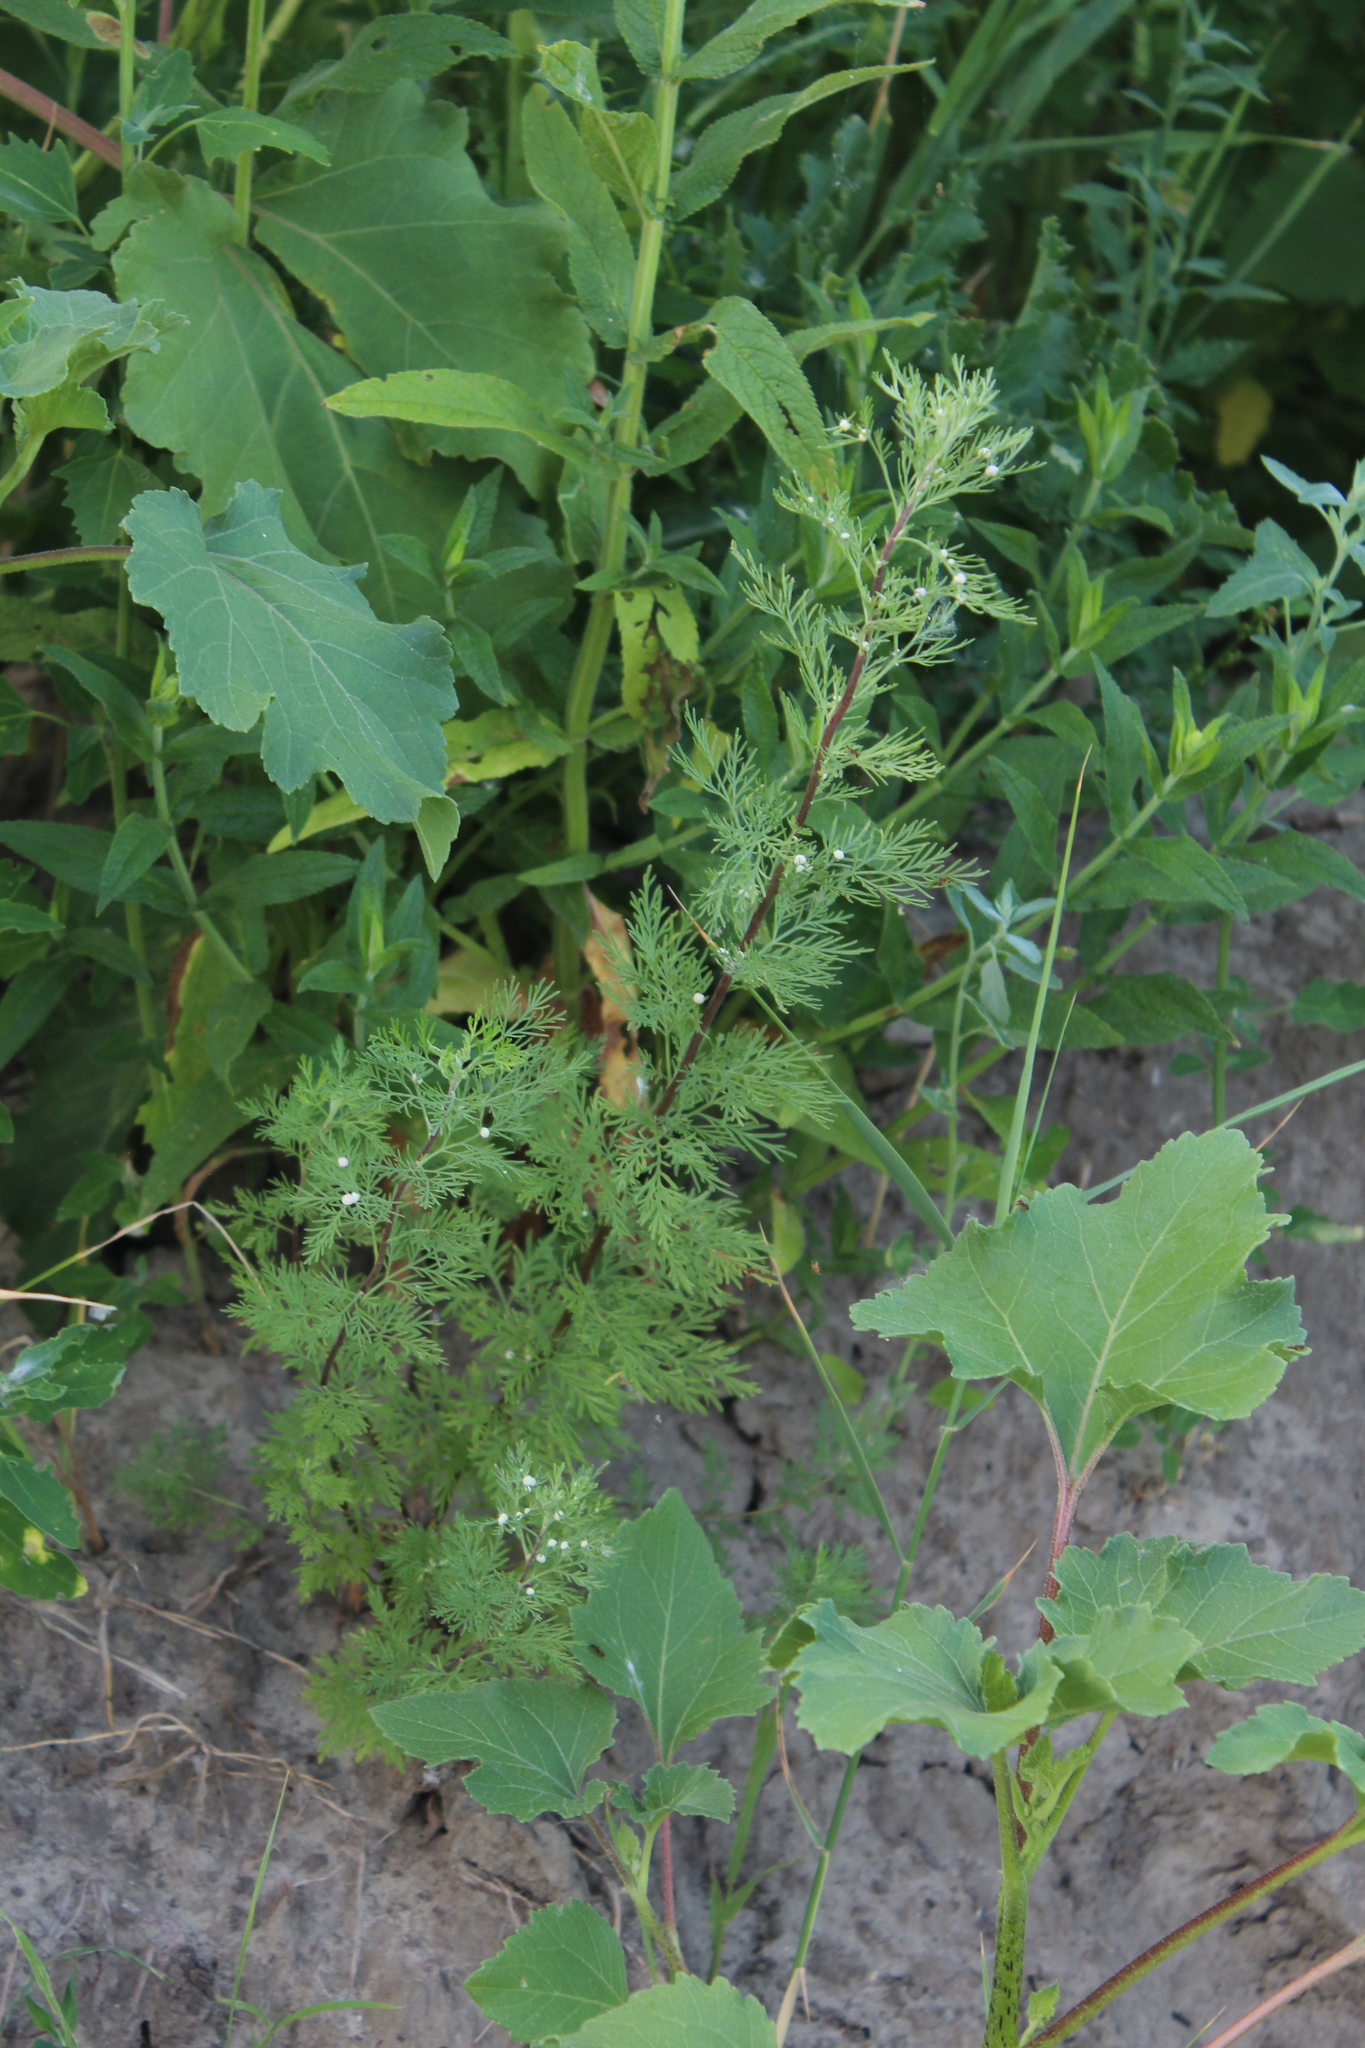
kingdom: Plantae
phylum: Tracheophyta
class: Magnoliopsida
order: Asterales
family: Asteraceae
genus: Artemisia
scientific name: Artemisia abrotanum
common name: Southernwood
